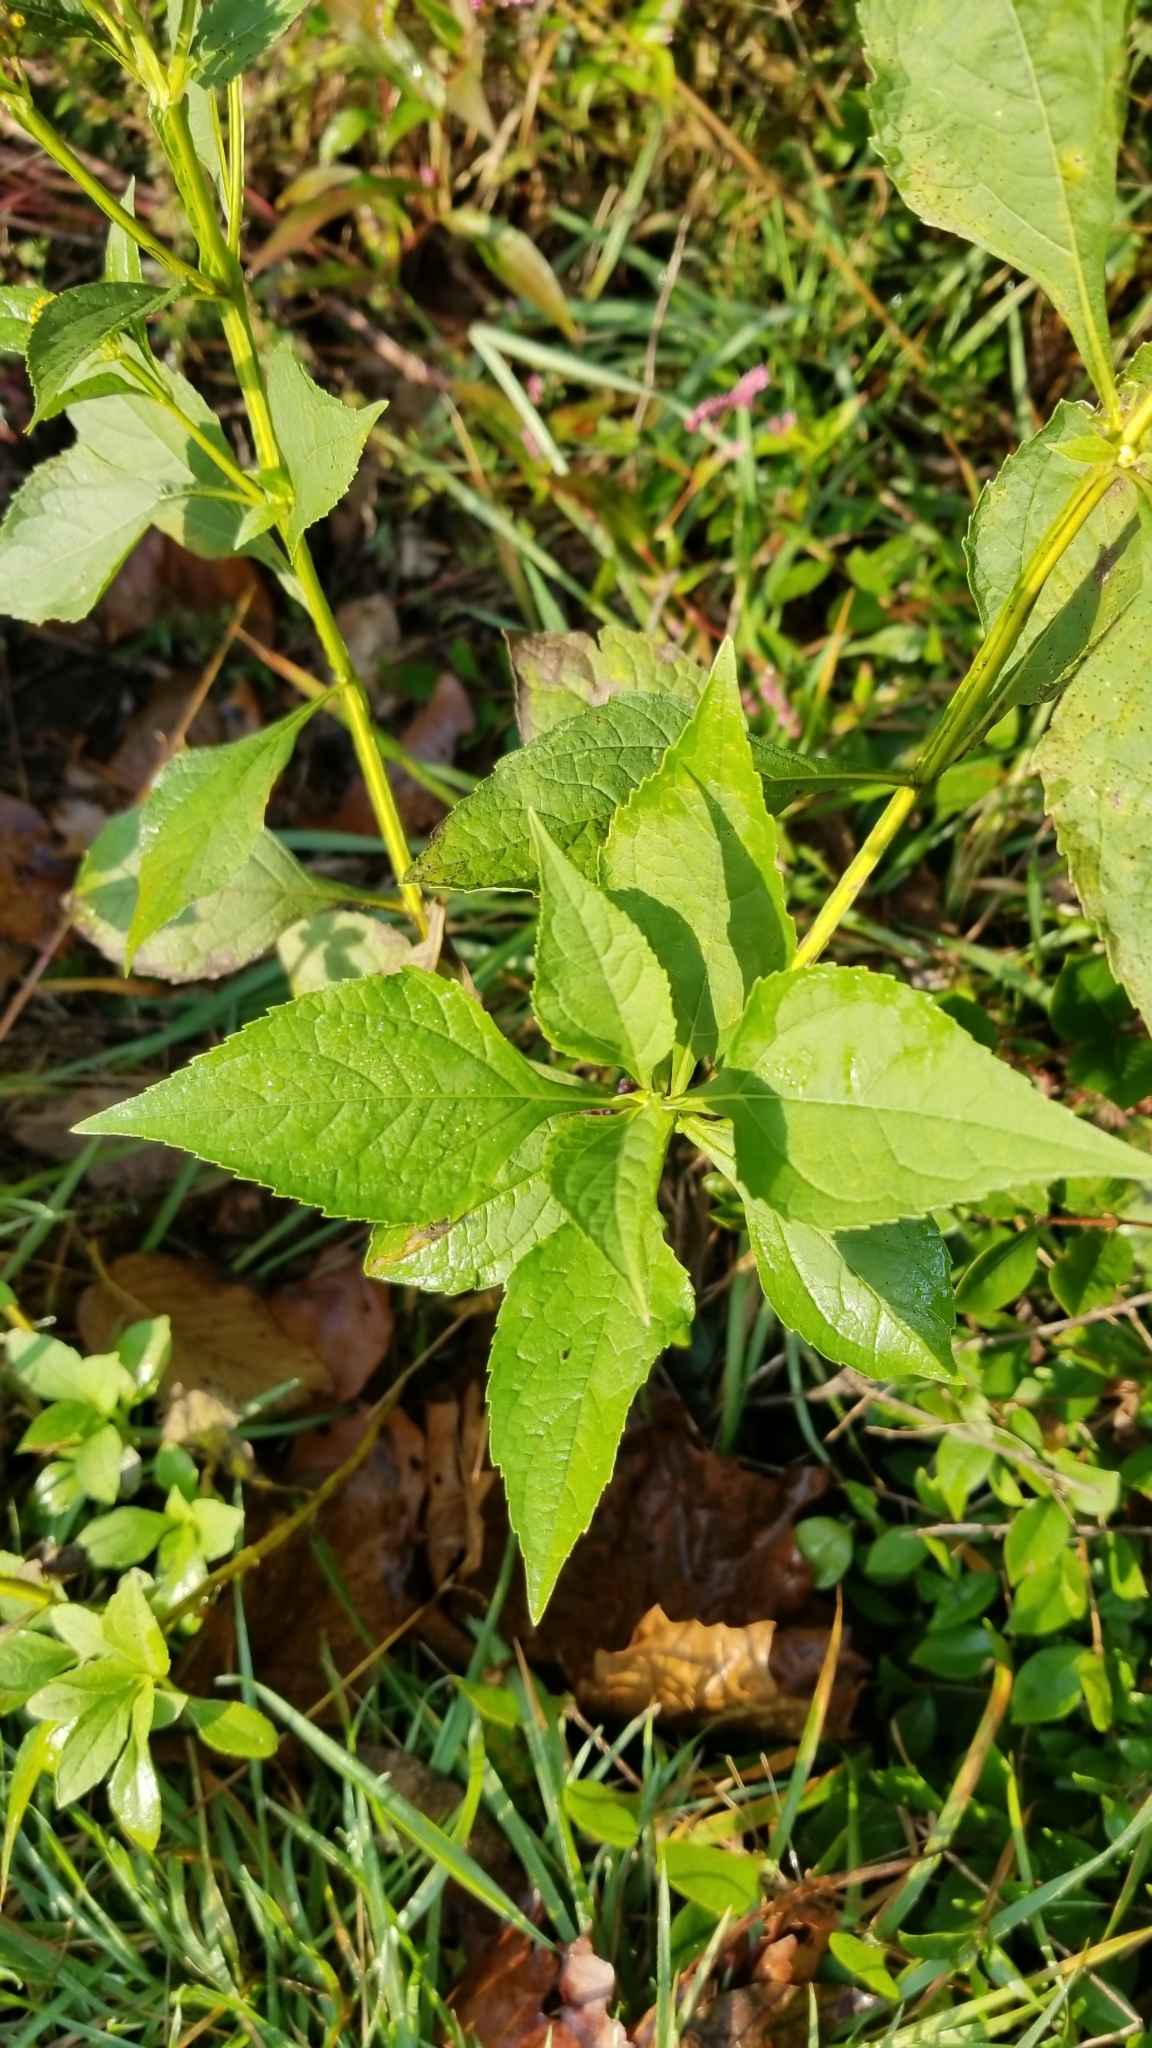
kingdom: Plantae
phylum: Tracheophyta
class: Magnoliopsida
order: Asterales
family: Asteraceae
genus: Verbesina
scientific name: Verbesina occidentalis
